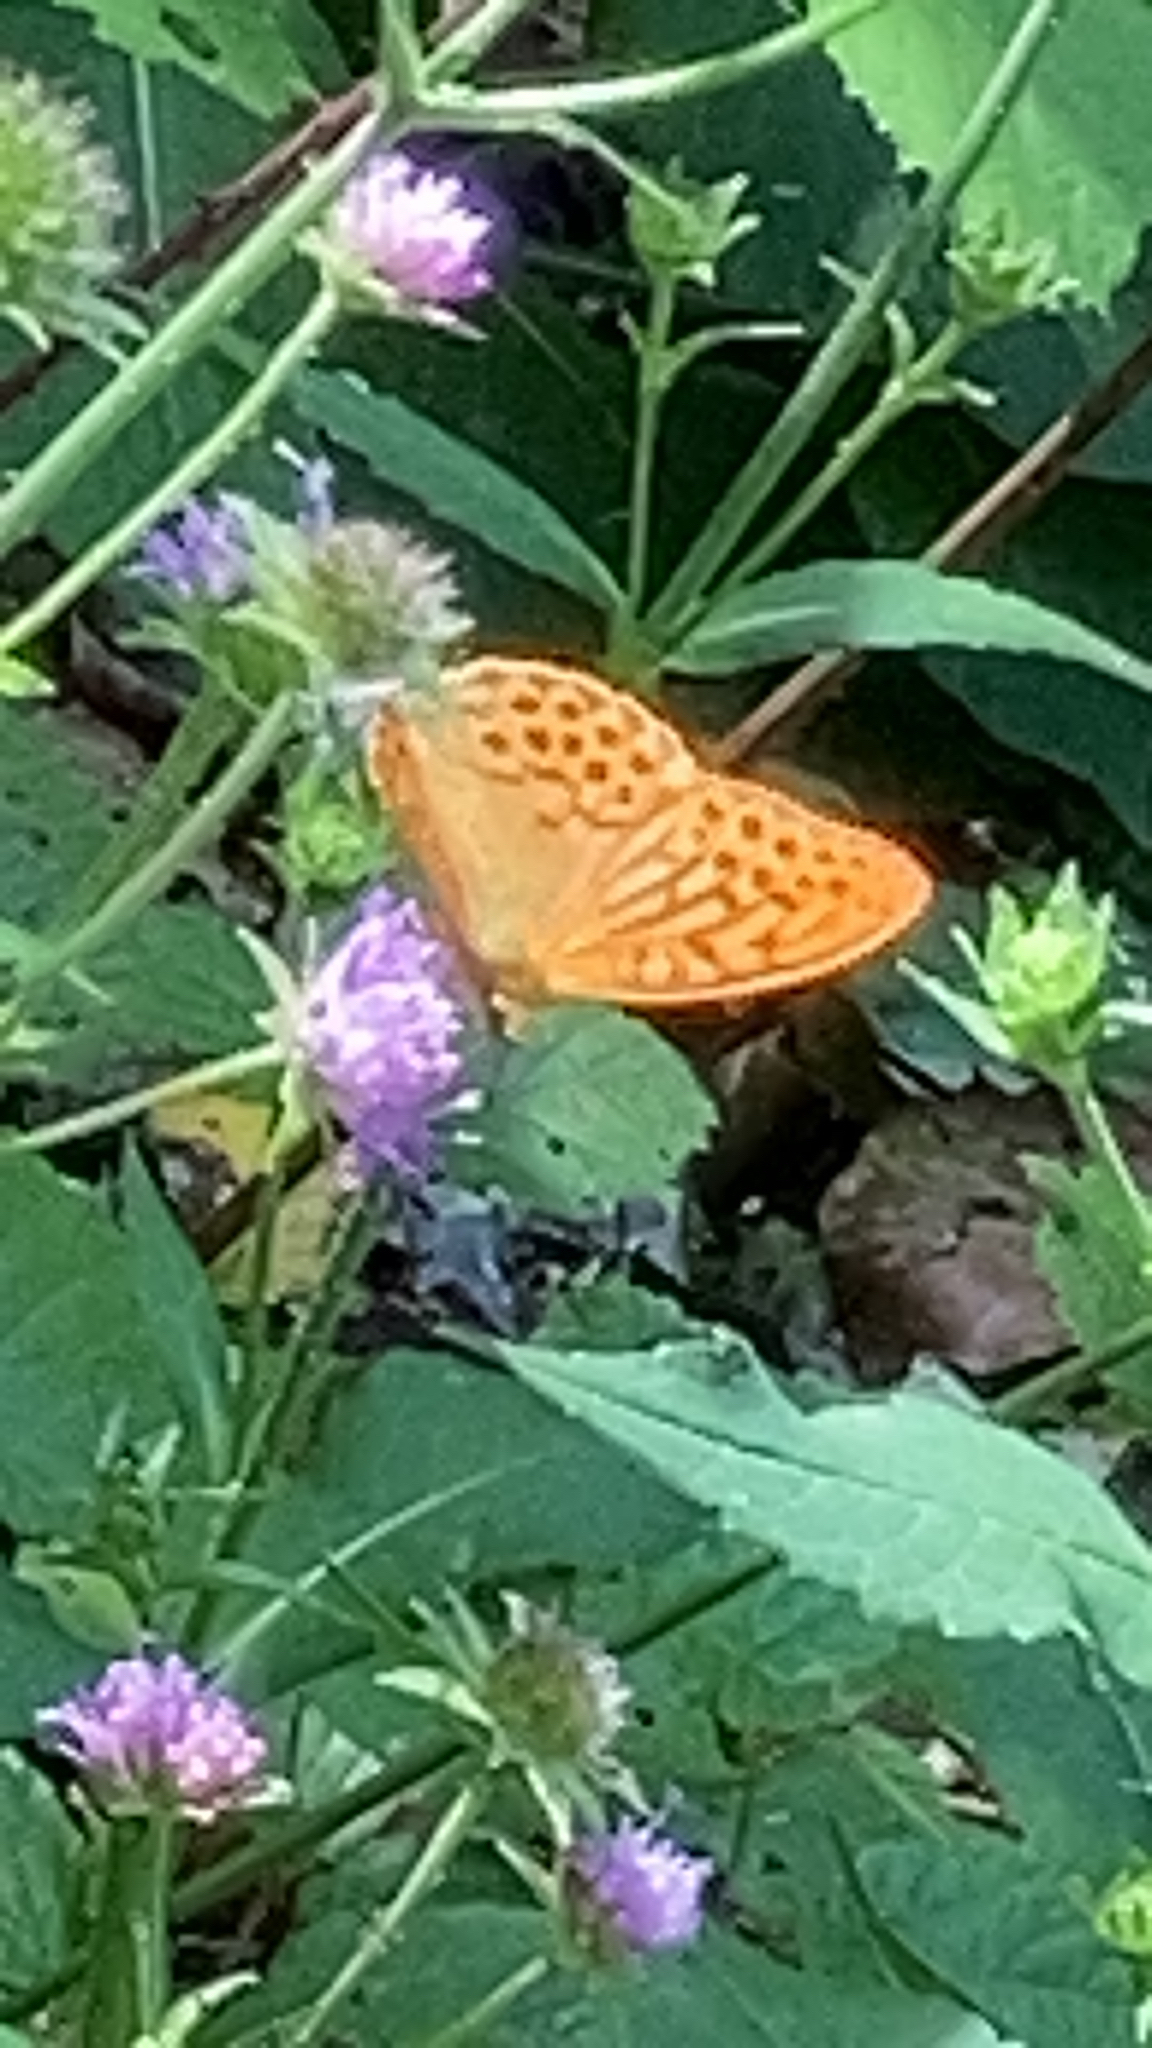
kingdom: Animalia
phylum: Arthropoda
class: Insecta
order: Lepidoptera
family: Nymphalidae
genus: Argynnis
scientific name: Argynnis paphia
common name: Silver-washed fritillary
